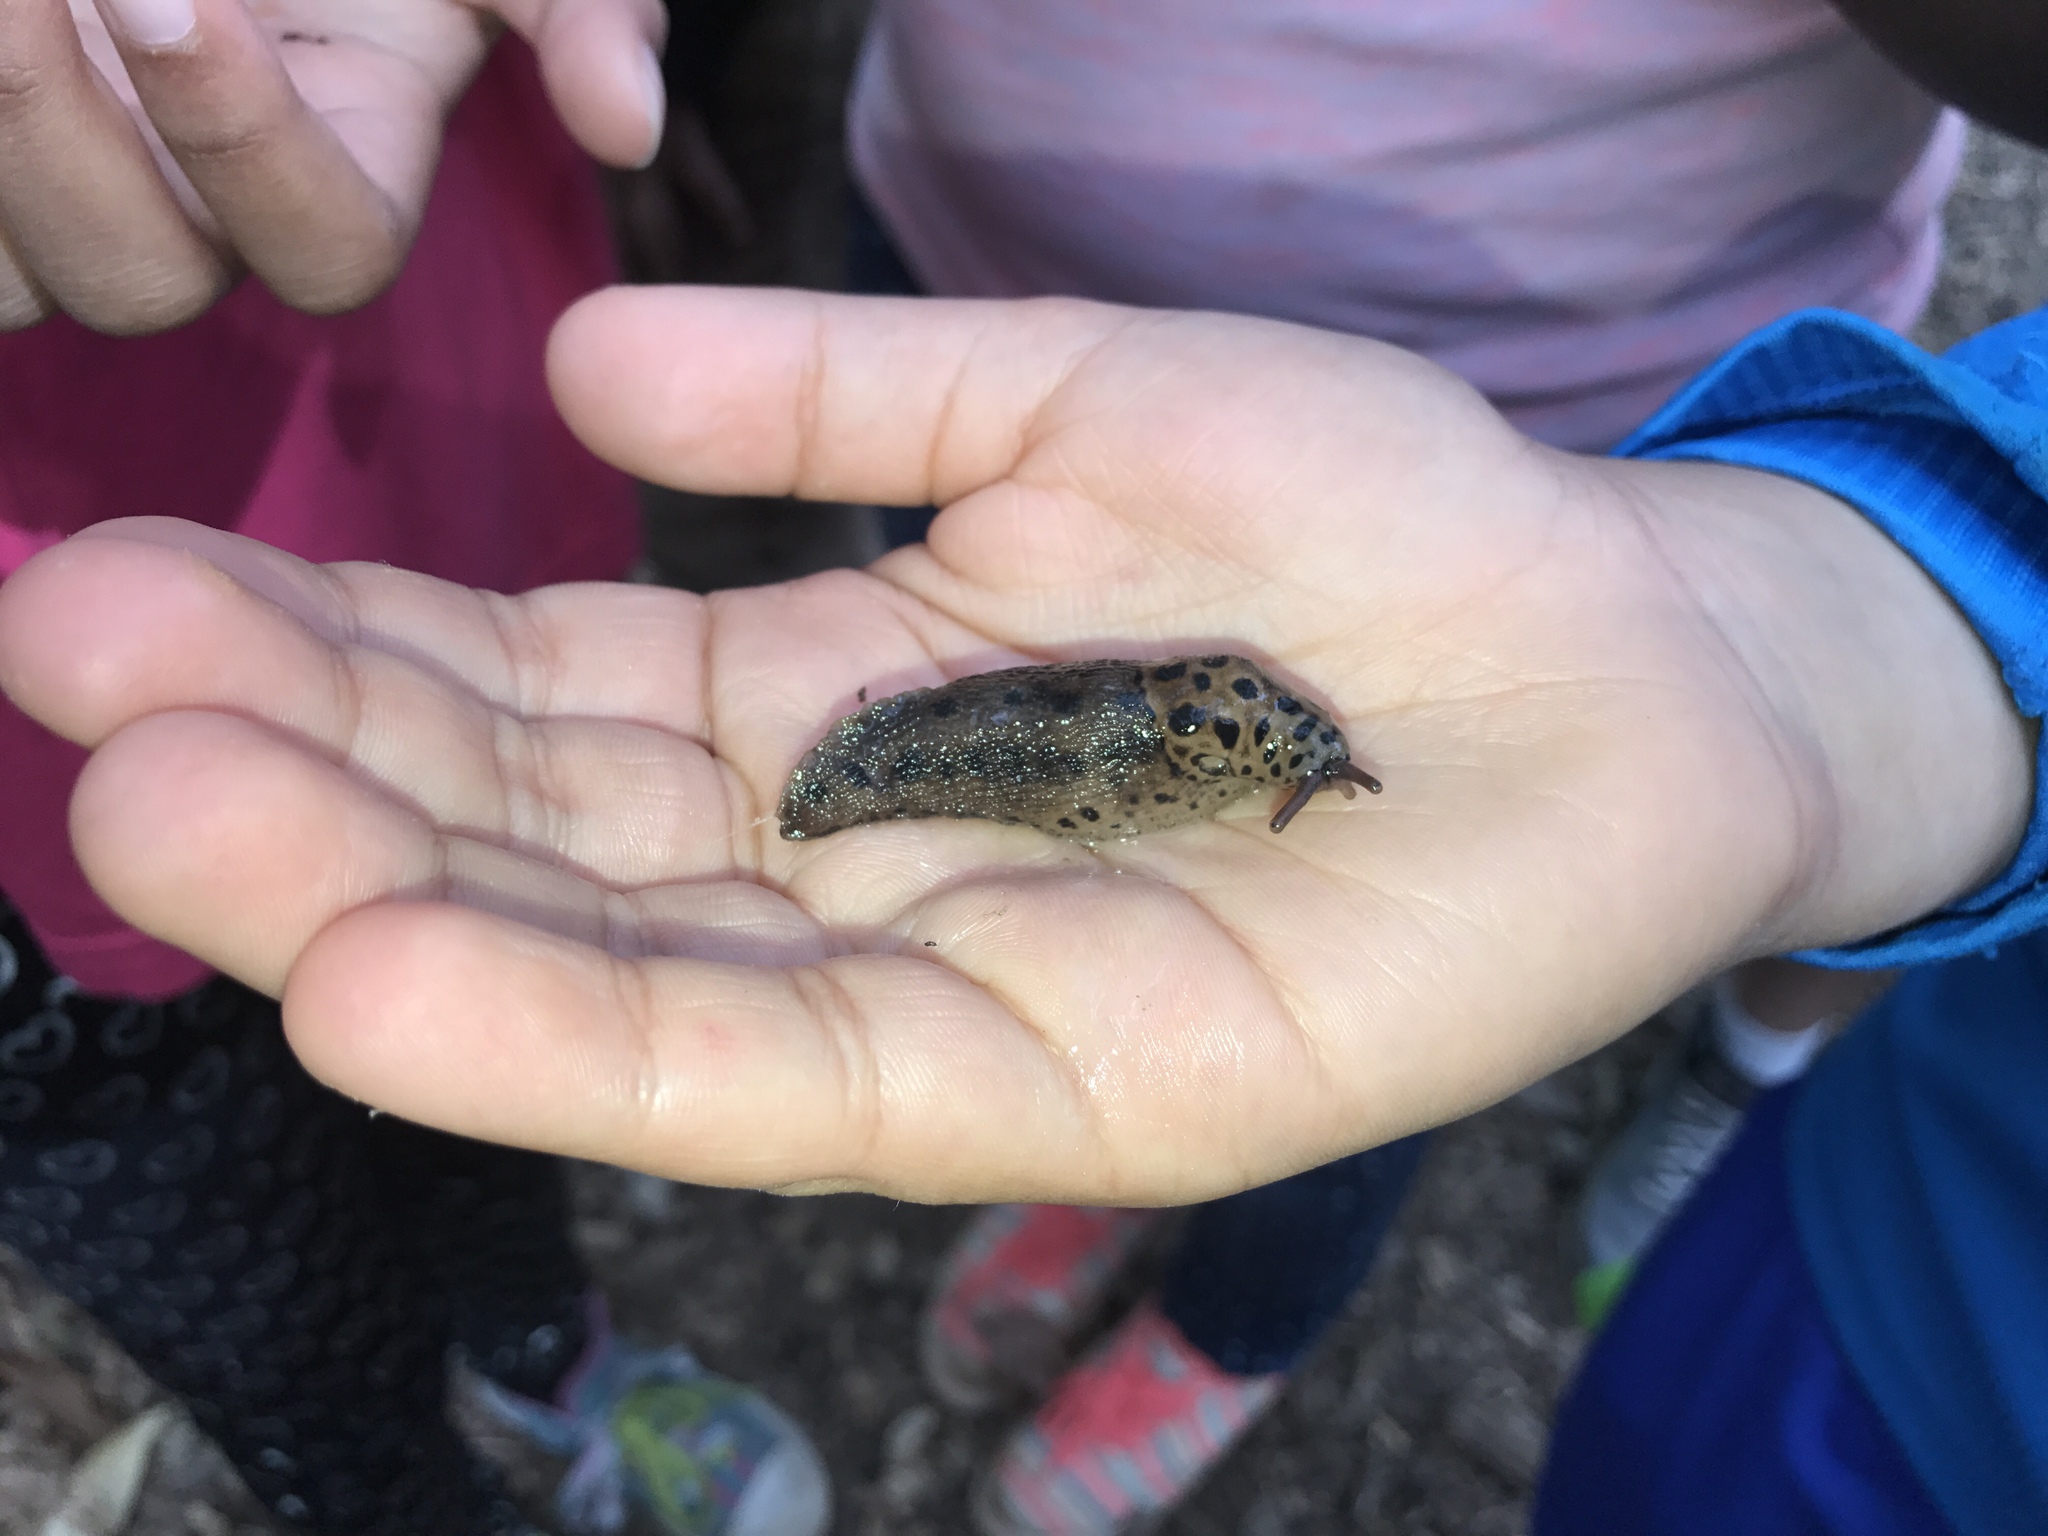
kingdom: Animalia
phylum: Mollusca
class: Gastropoda
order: Stylommatophora
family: Limacidae
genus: Limax
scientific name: Limax maximus
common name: Great grey slug
